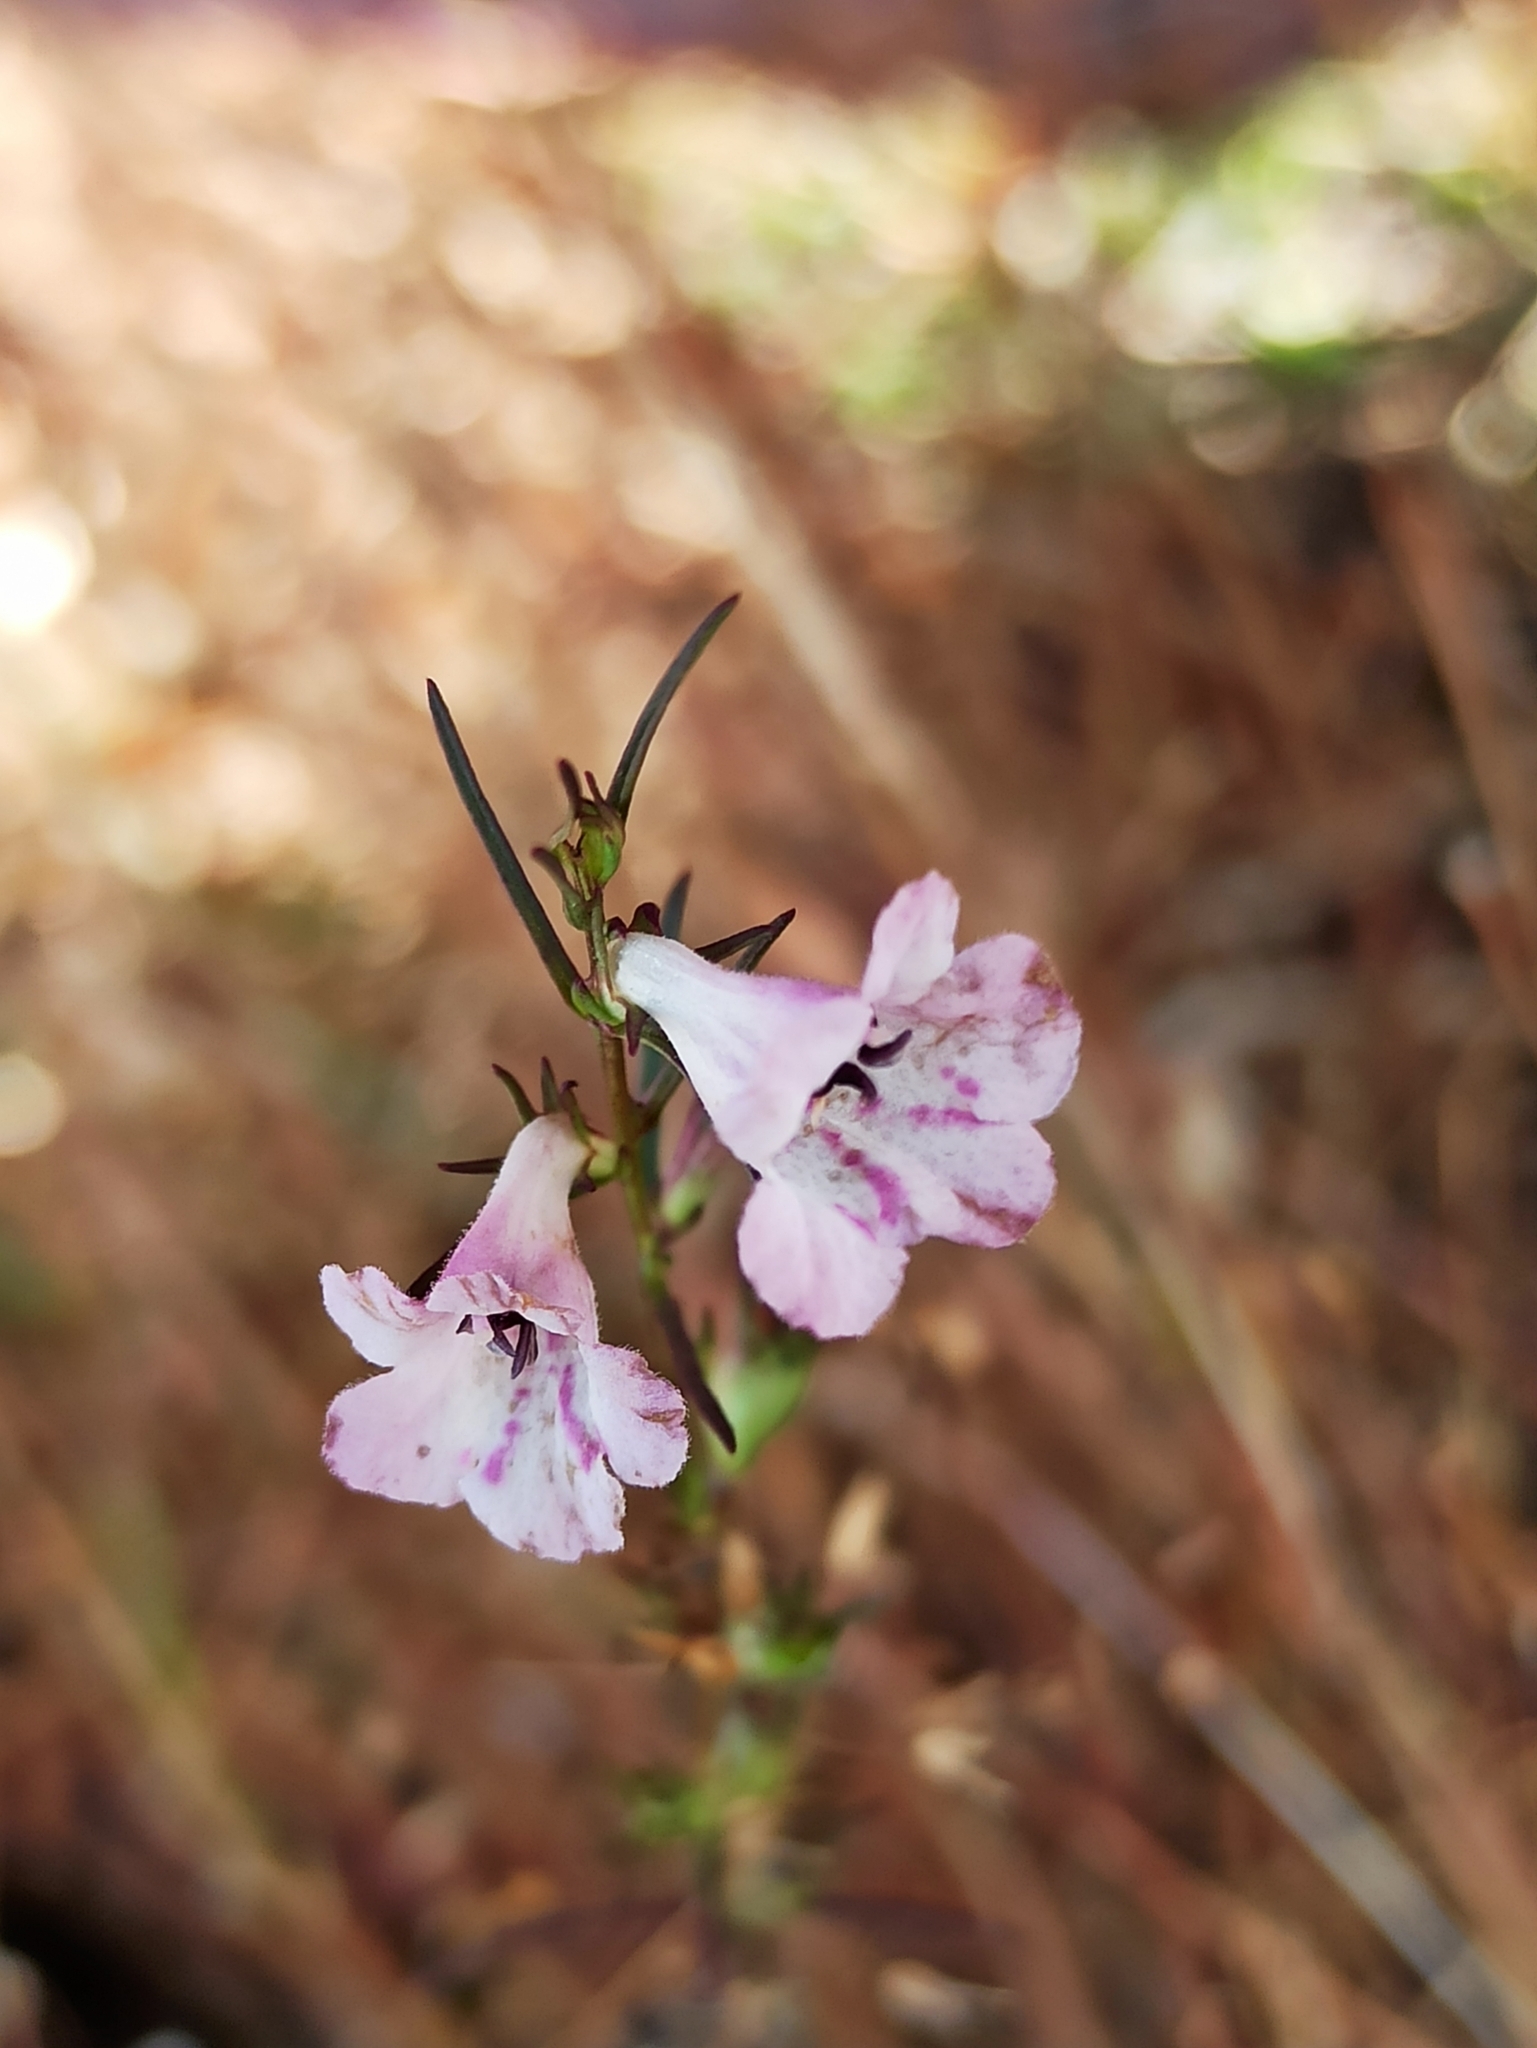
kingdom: Plantae
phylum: Tracheophyta
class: Magnoliopsida
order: Lamiales
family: Orobanchaceae
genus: Parasopubia
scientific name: Parasopubia hofmannii
